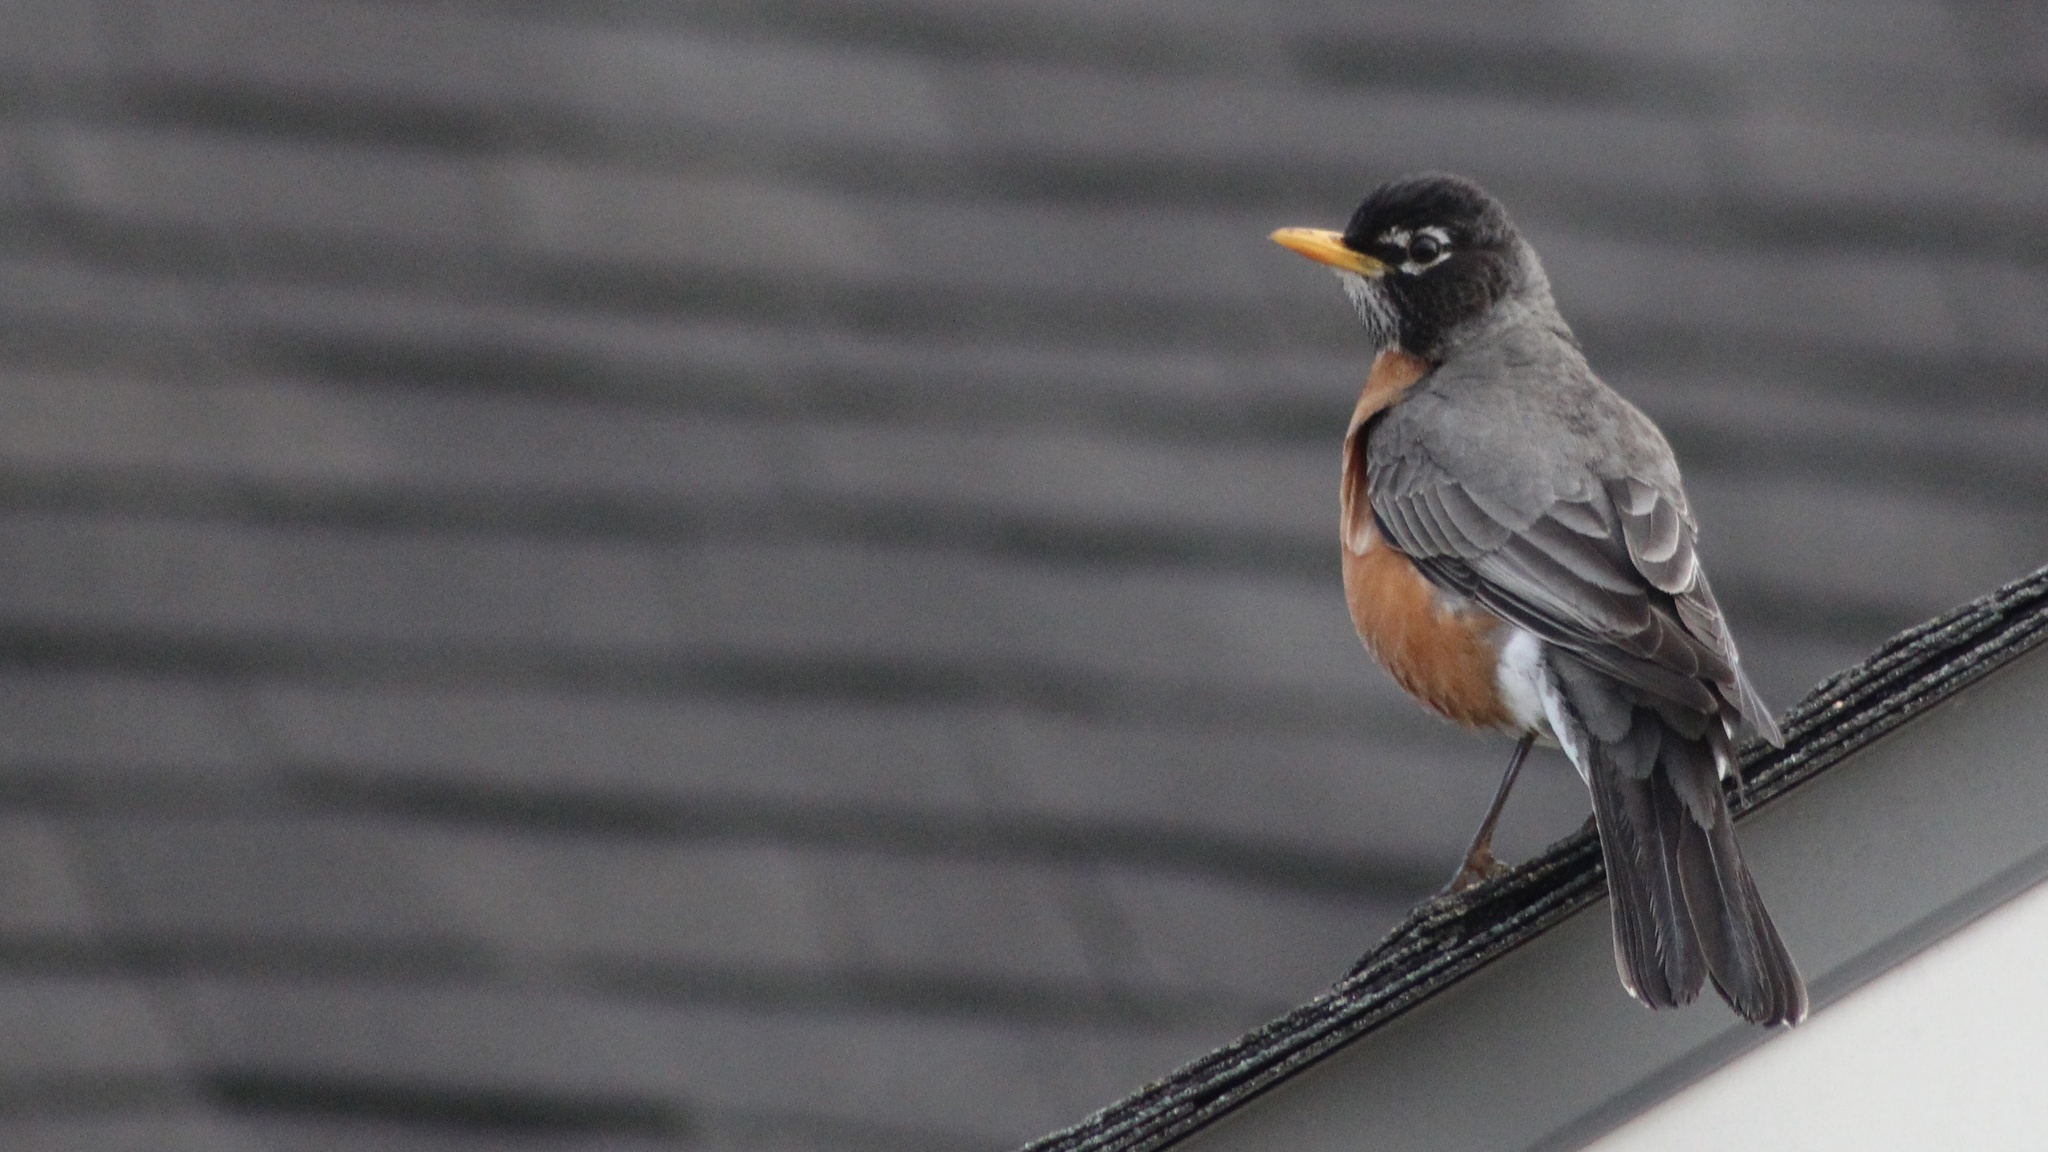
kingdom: Animalia
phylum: Chordata
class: Aves
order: Passeriformes
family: Turdidae
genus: Turdus
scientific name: Turdus migratorius
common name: American robin
